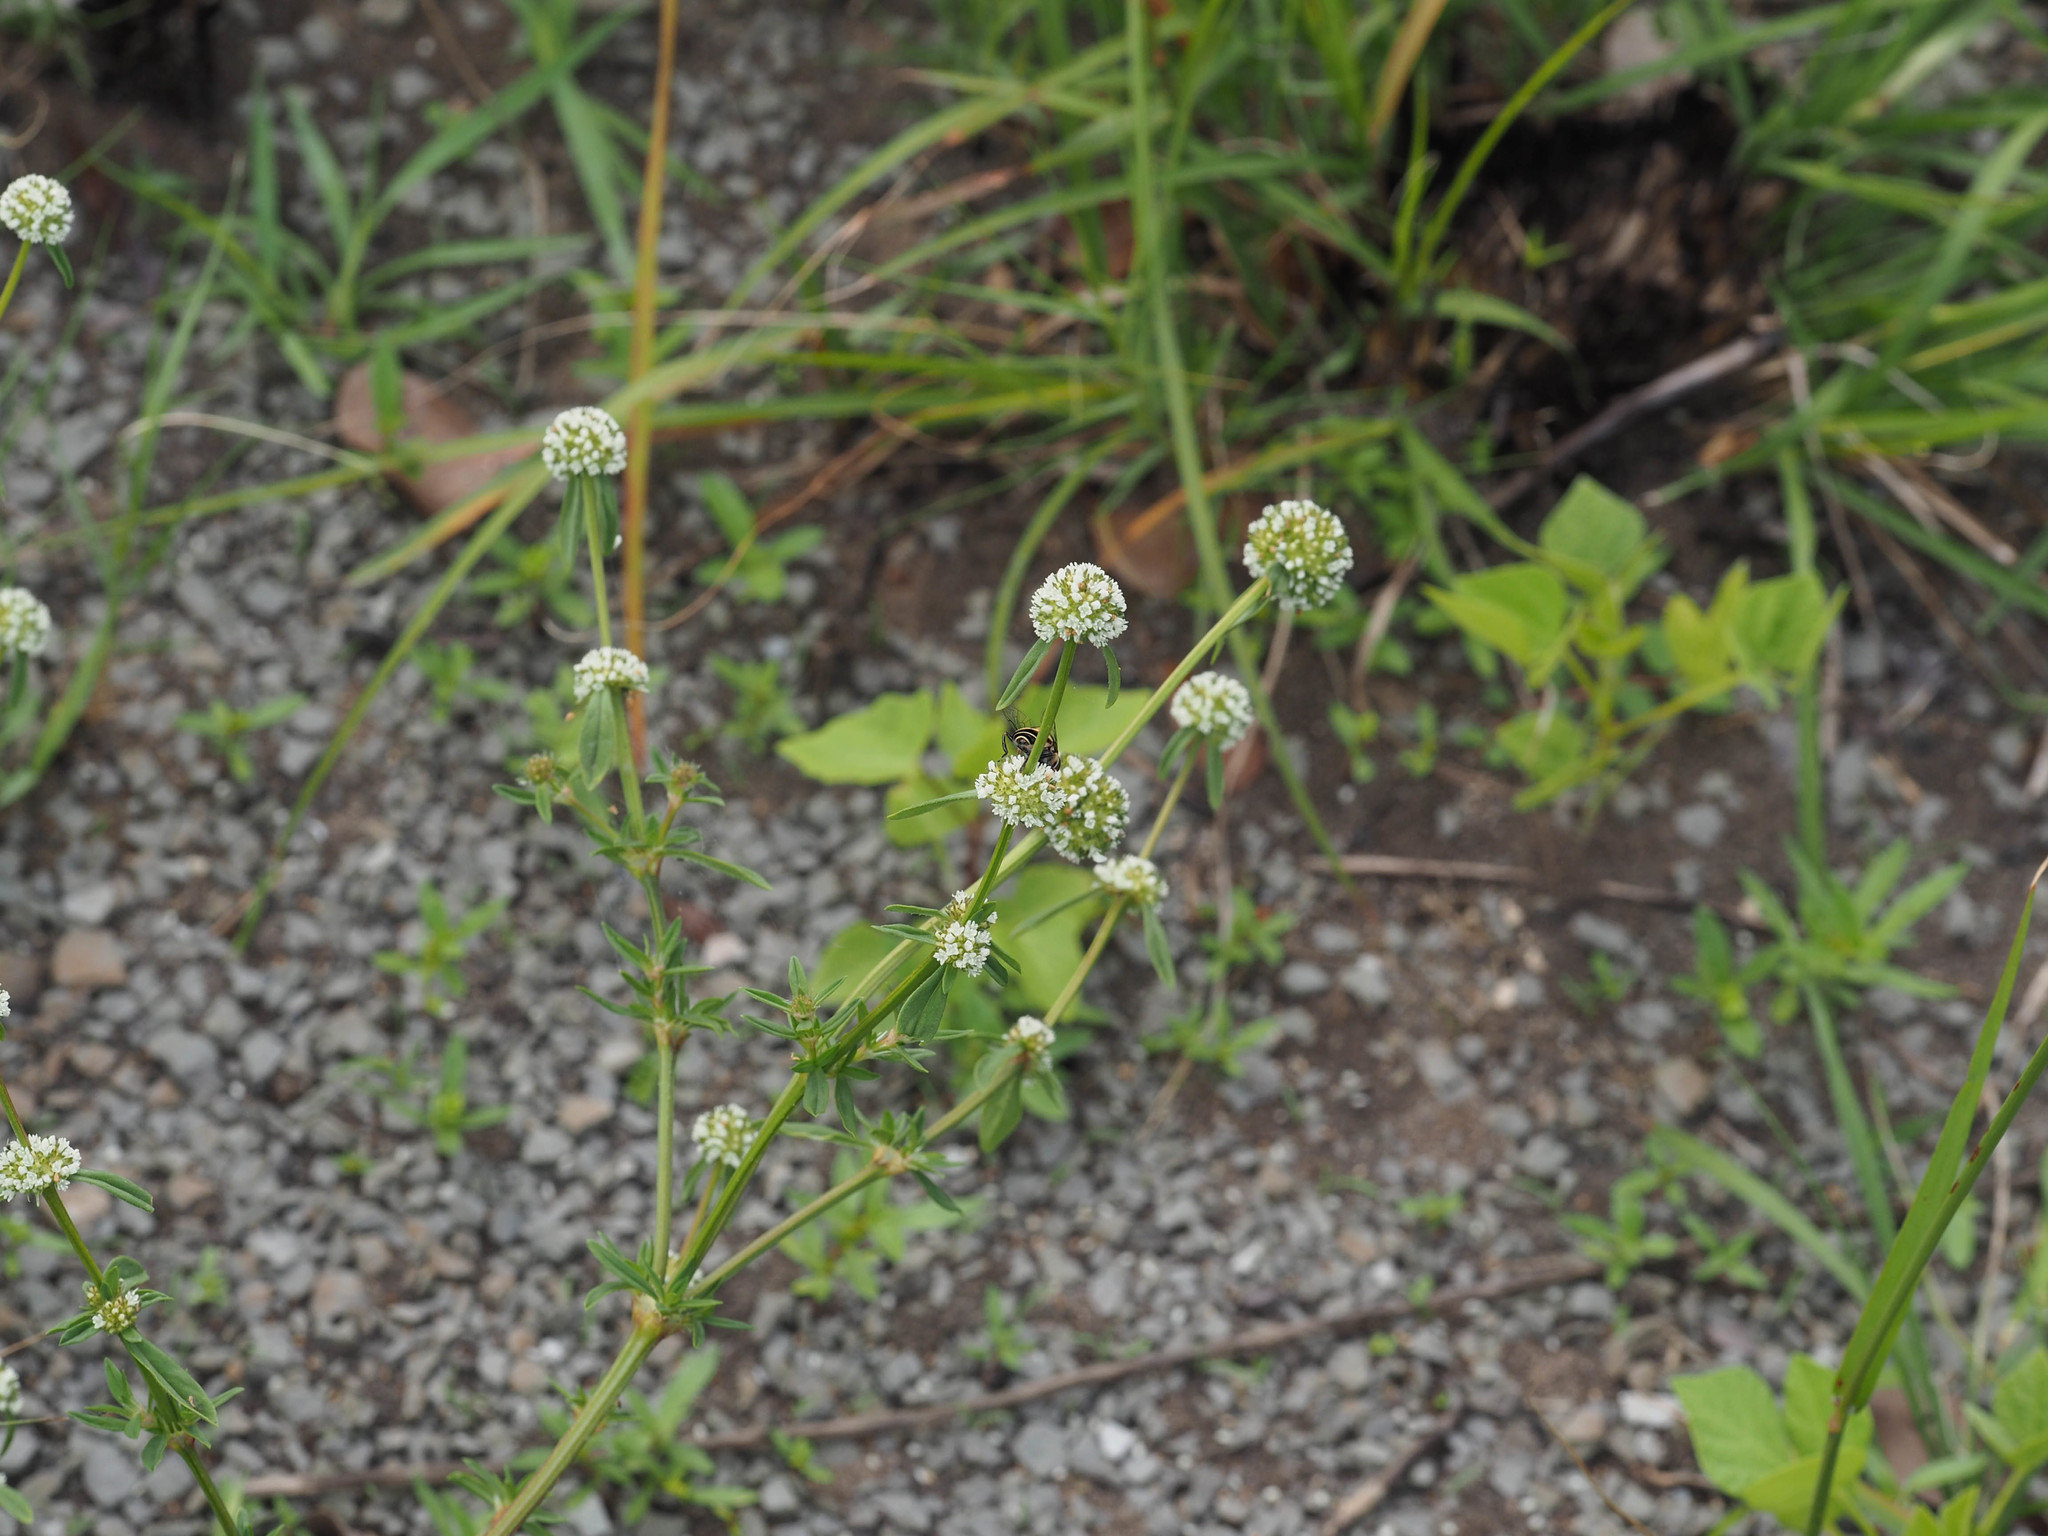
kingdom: Plantae
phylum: Tracheophyta
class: Magnoliopsida
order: Gentianales
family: Rubiaceae
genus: Spermacoce
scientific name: Spermacoce verticillata
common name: Shrubby false buttonweed
